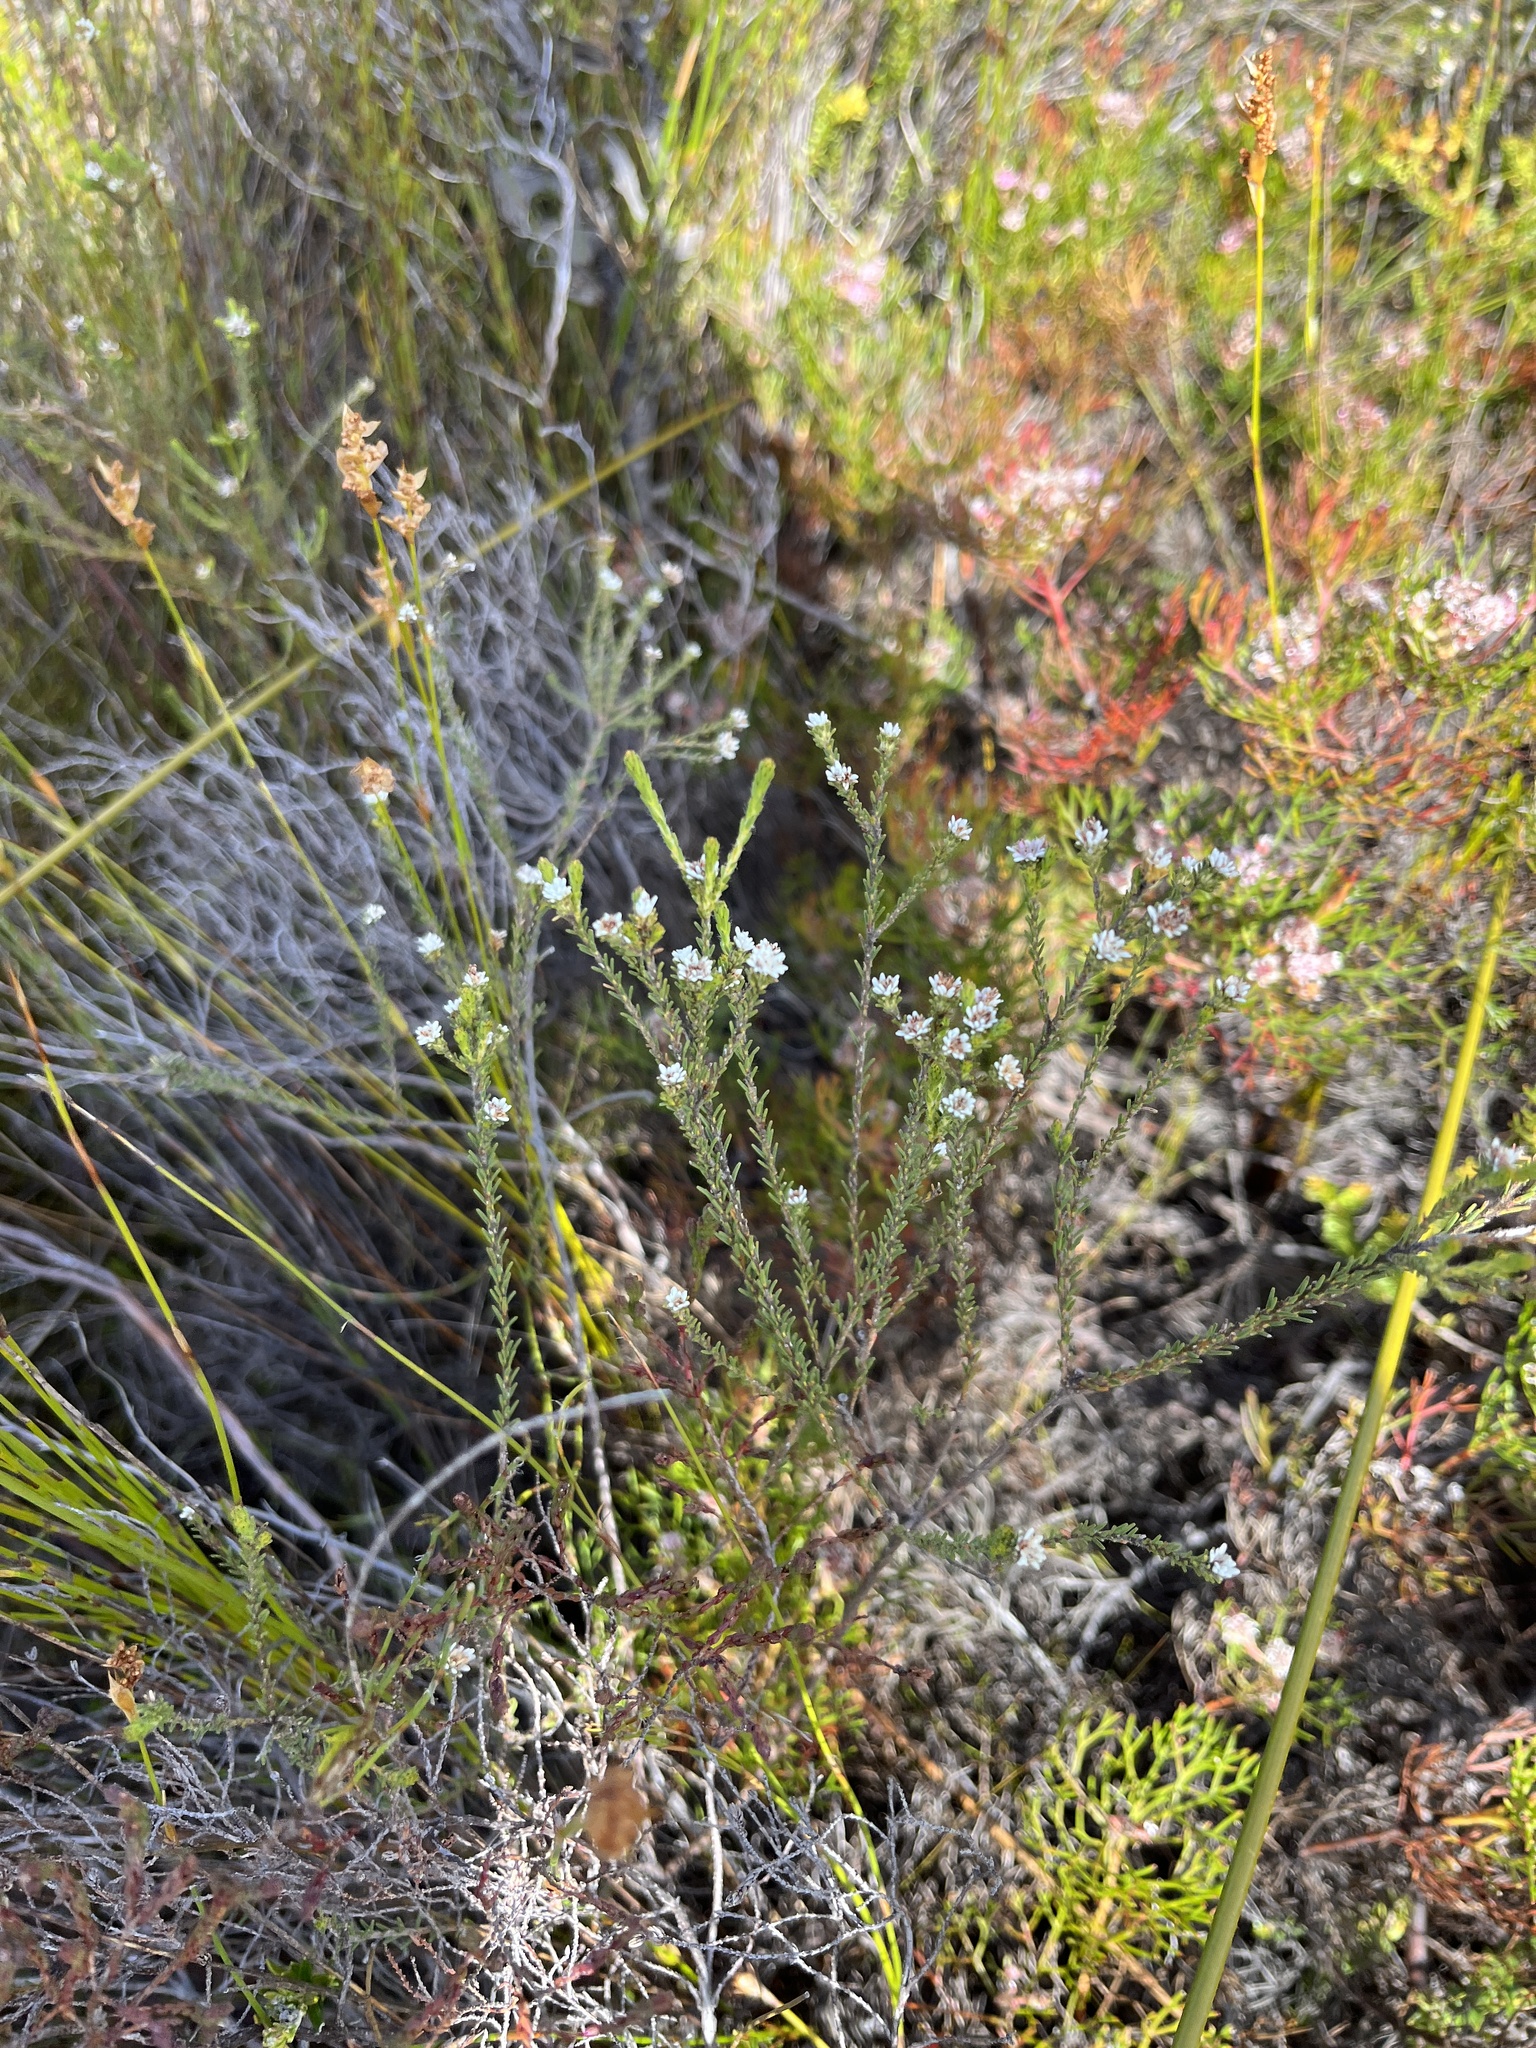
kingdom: Plantae
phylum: Tracheophyta
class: Magnoliopsida
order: Bruniales
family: Bruniaceae
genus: Staavia
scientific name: Staavia radiata
